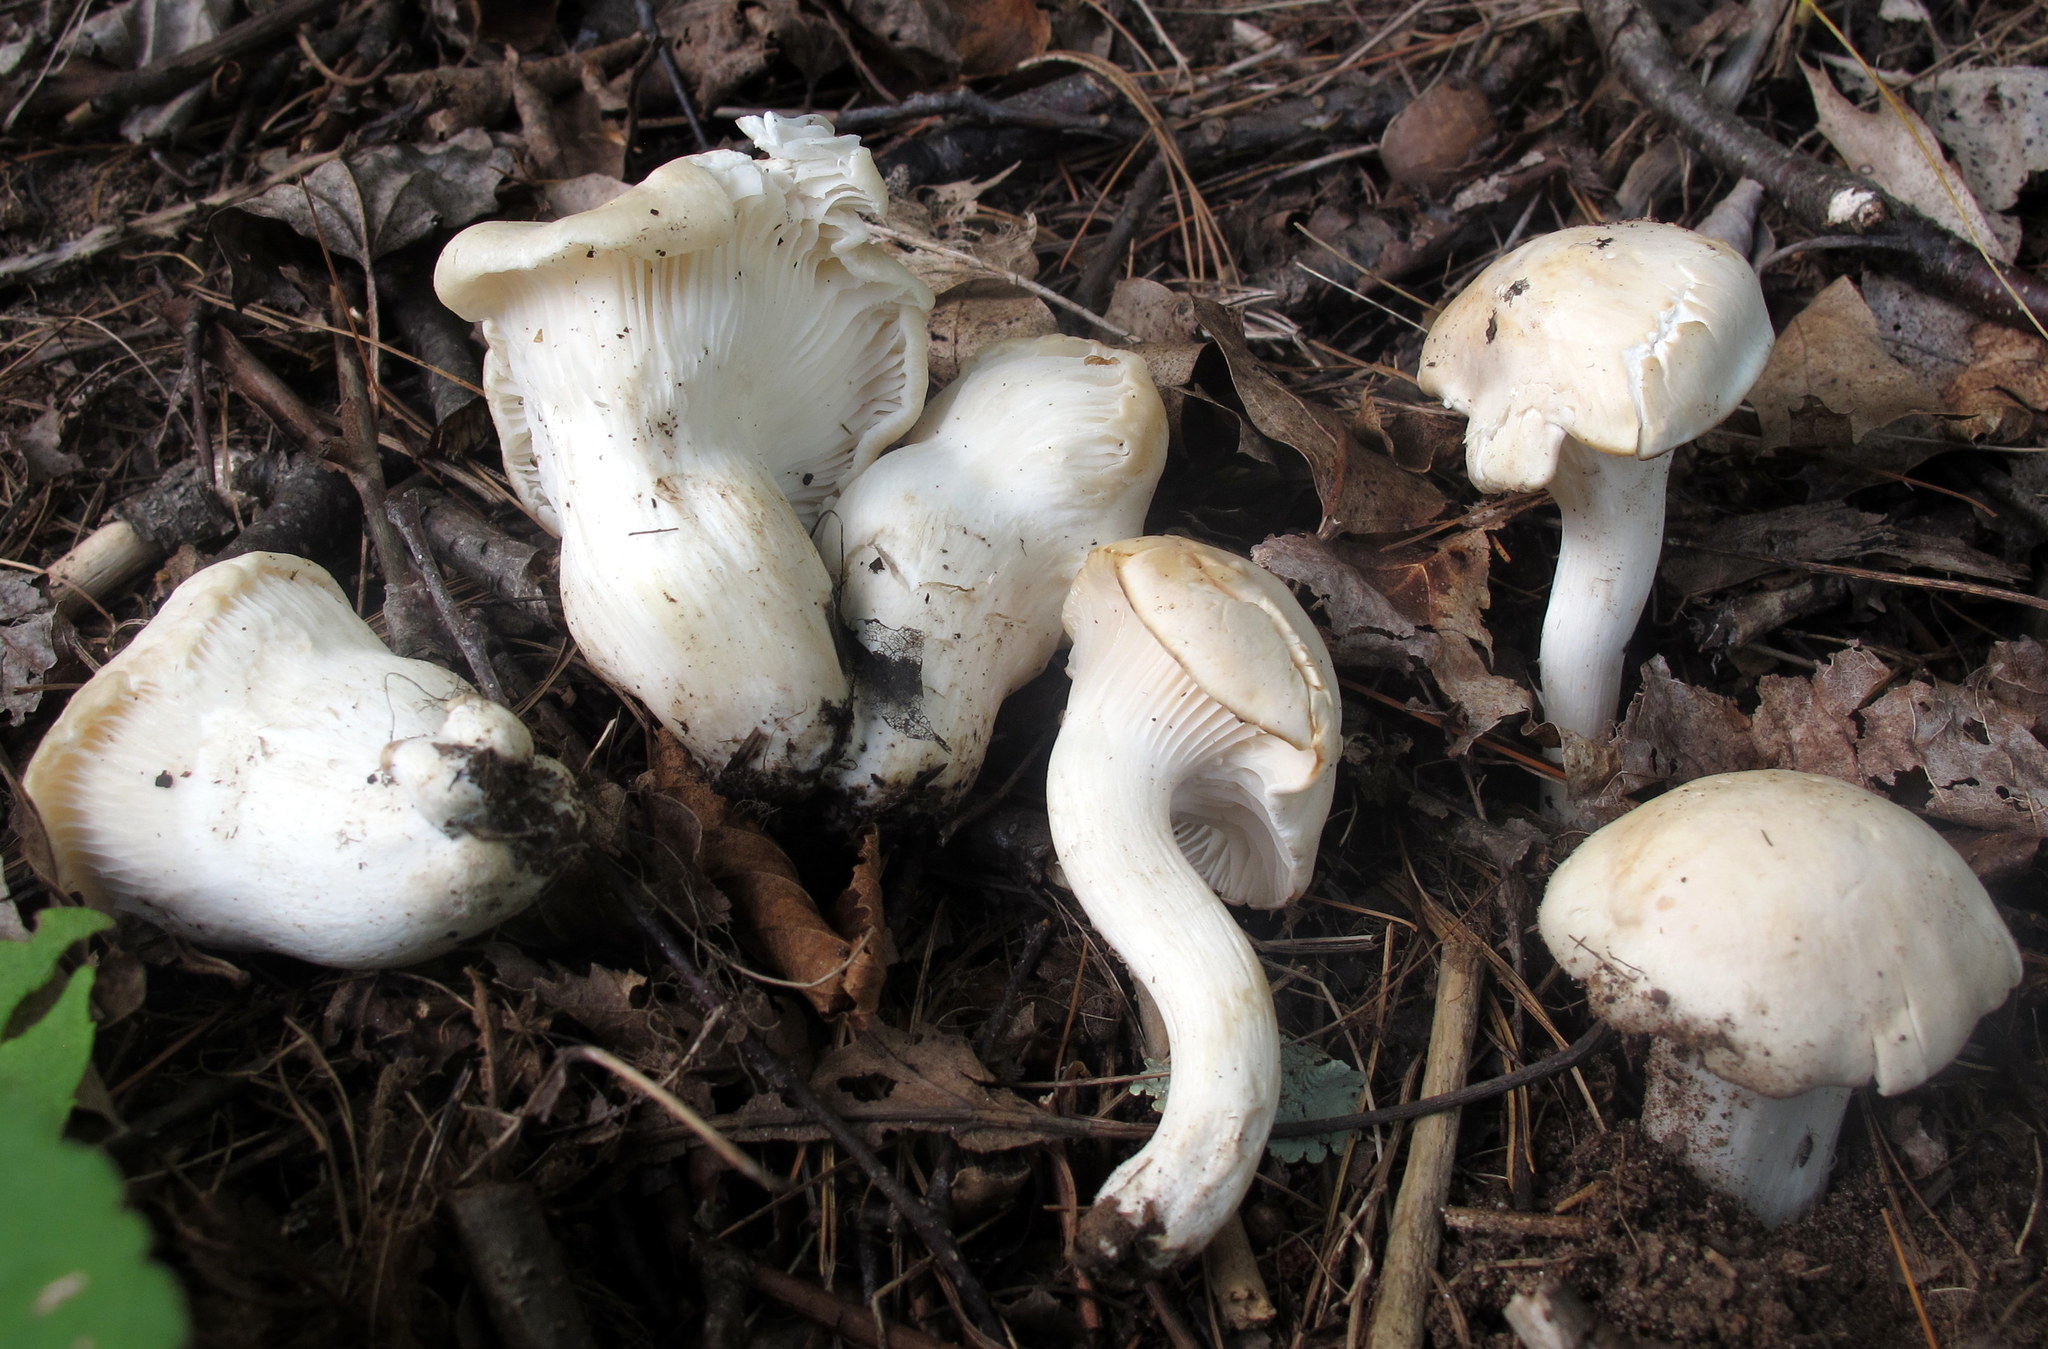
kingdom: Fungi
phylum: Basidiomycota
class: Agaricomycetes
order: Agaricales
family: Hygrophoraceae
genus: Hygrocybe
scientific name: Hygrocybe angustifolia
